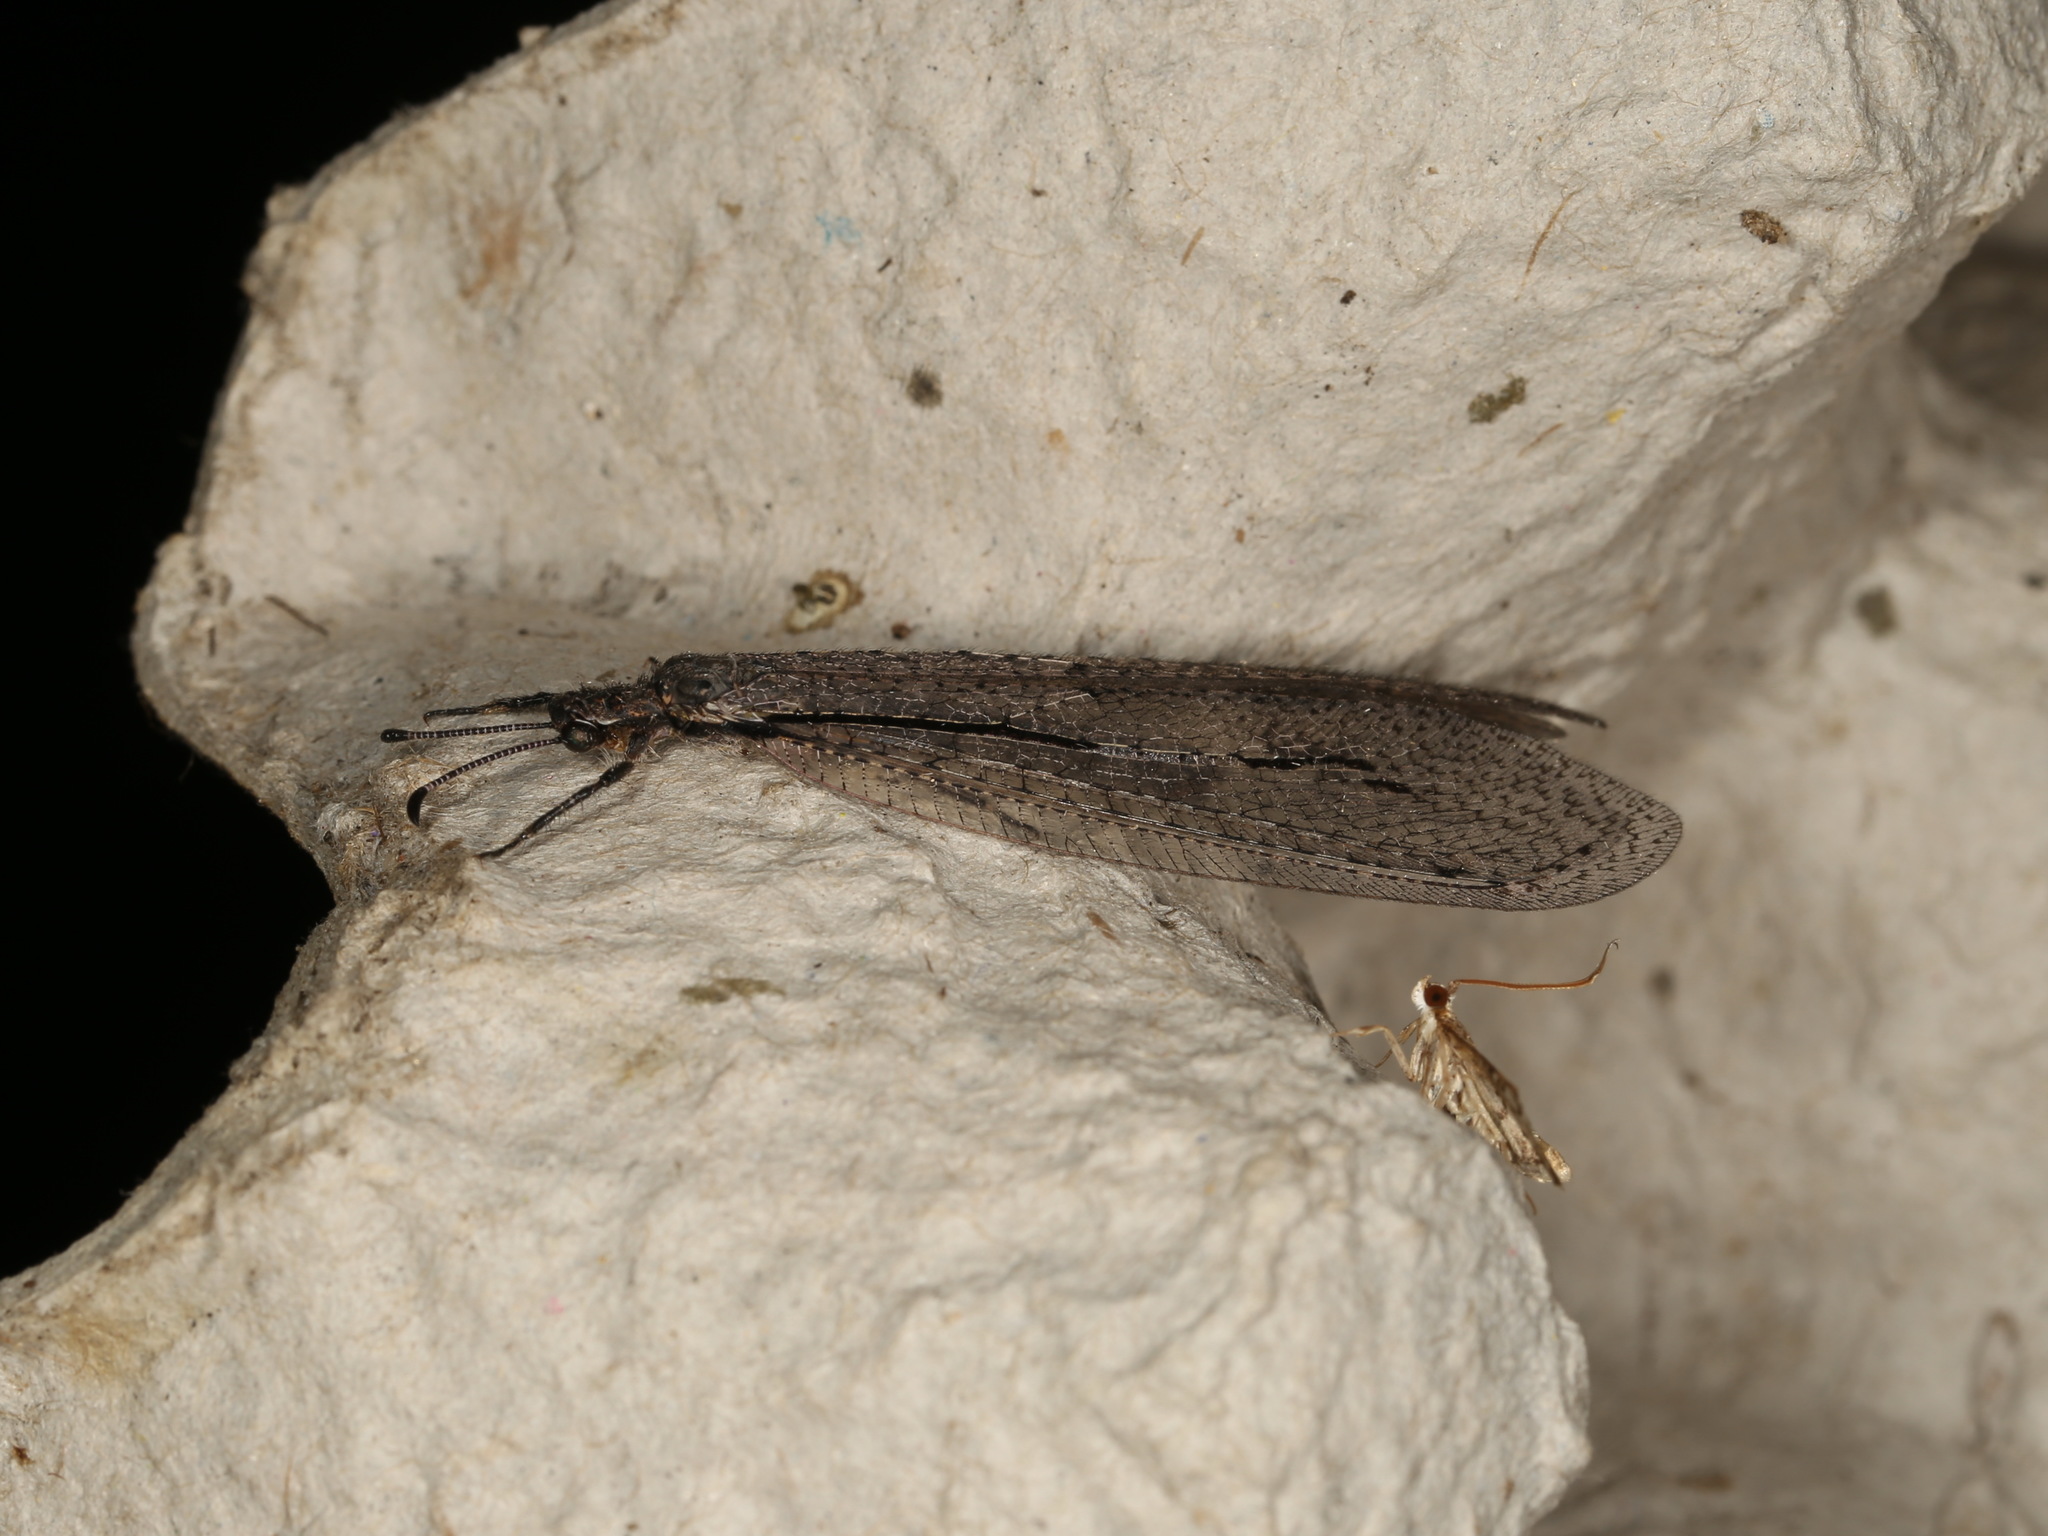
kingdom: Animalia
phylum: Arthropoda
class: Insecta
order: Neuroptera
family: Myrmeleontidae
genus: Glenoleon
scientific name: Glenoleon rudda
